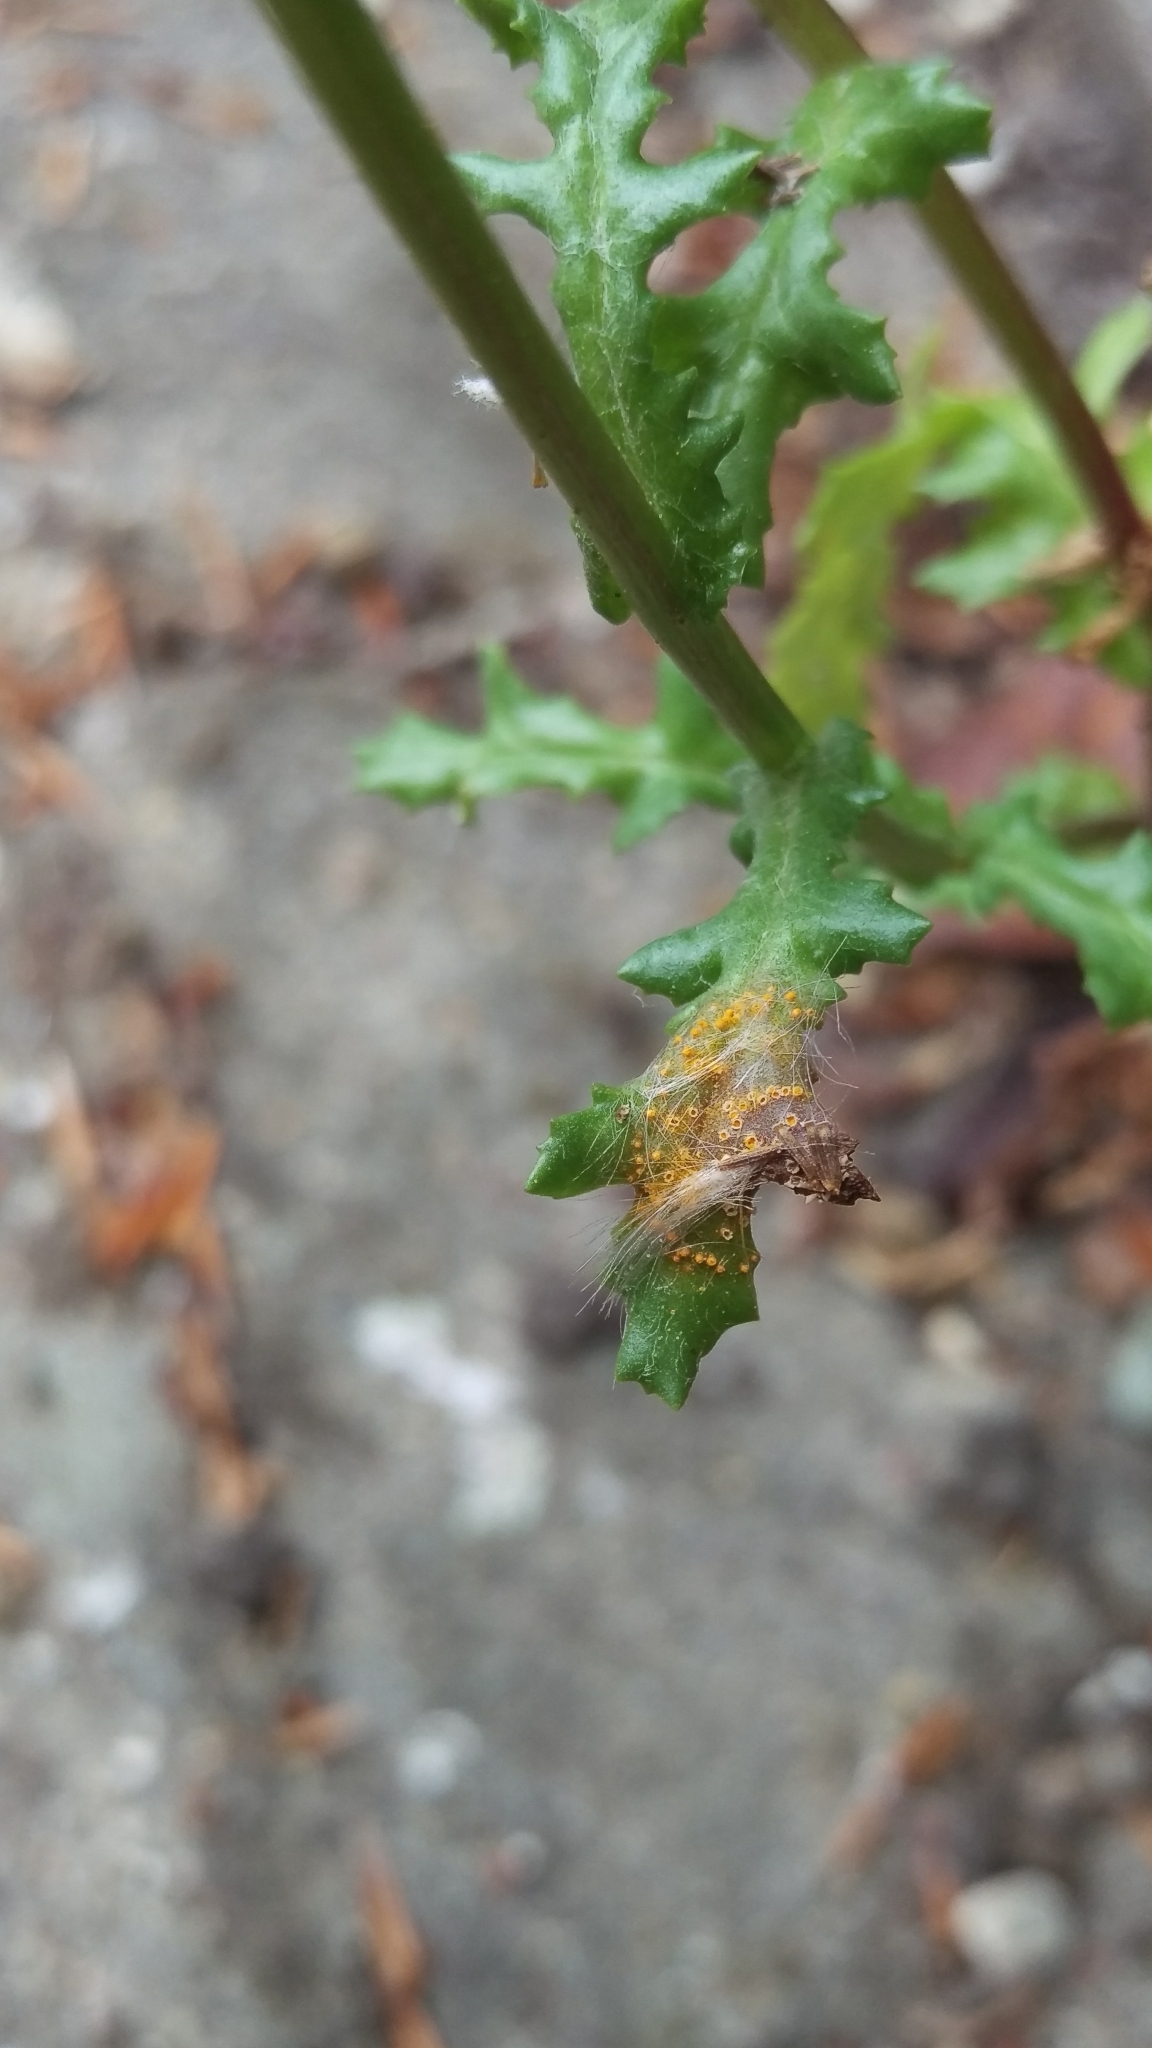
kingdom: Fungi
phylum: Basidiomycota
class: Pucciniomycetes
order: Pucciniales
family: Pucciniaceae
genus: Puccinia
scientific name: Puccinia lagenophorae
